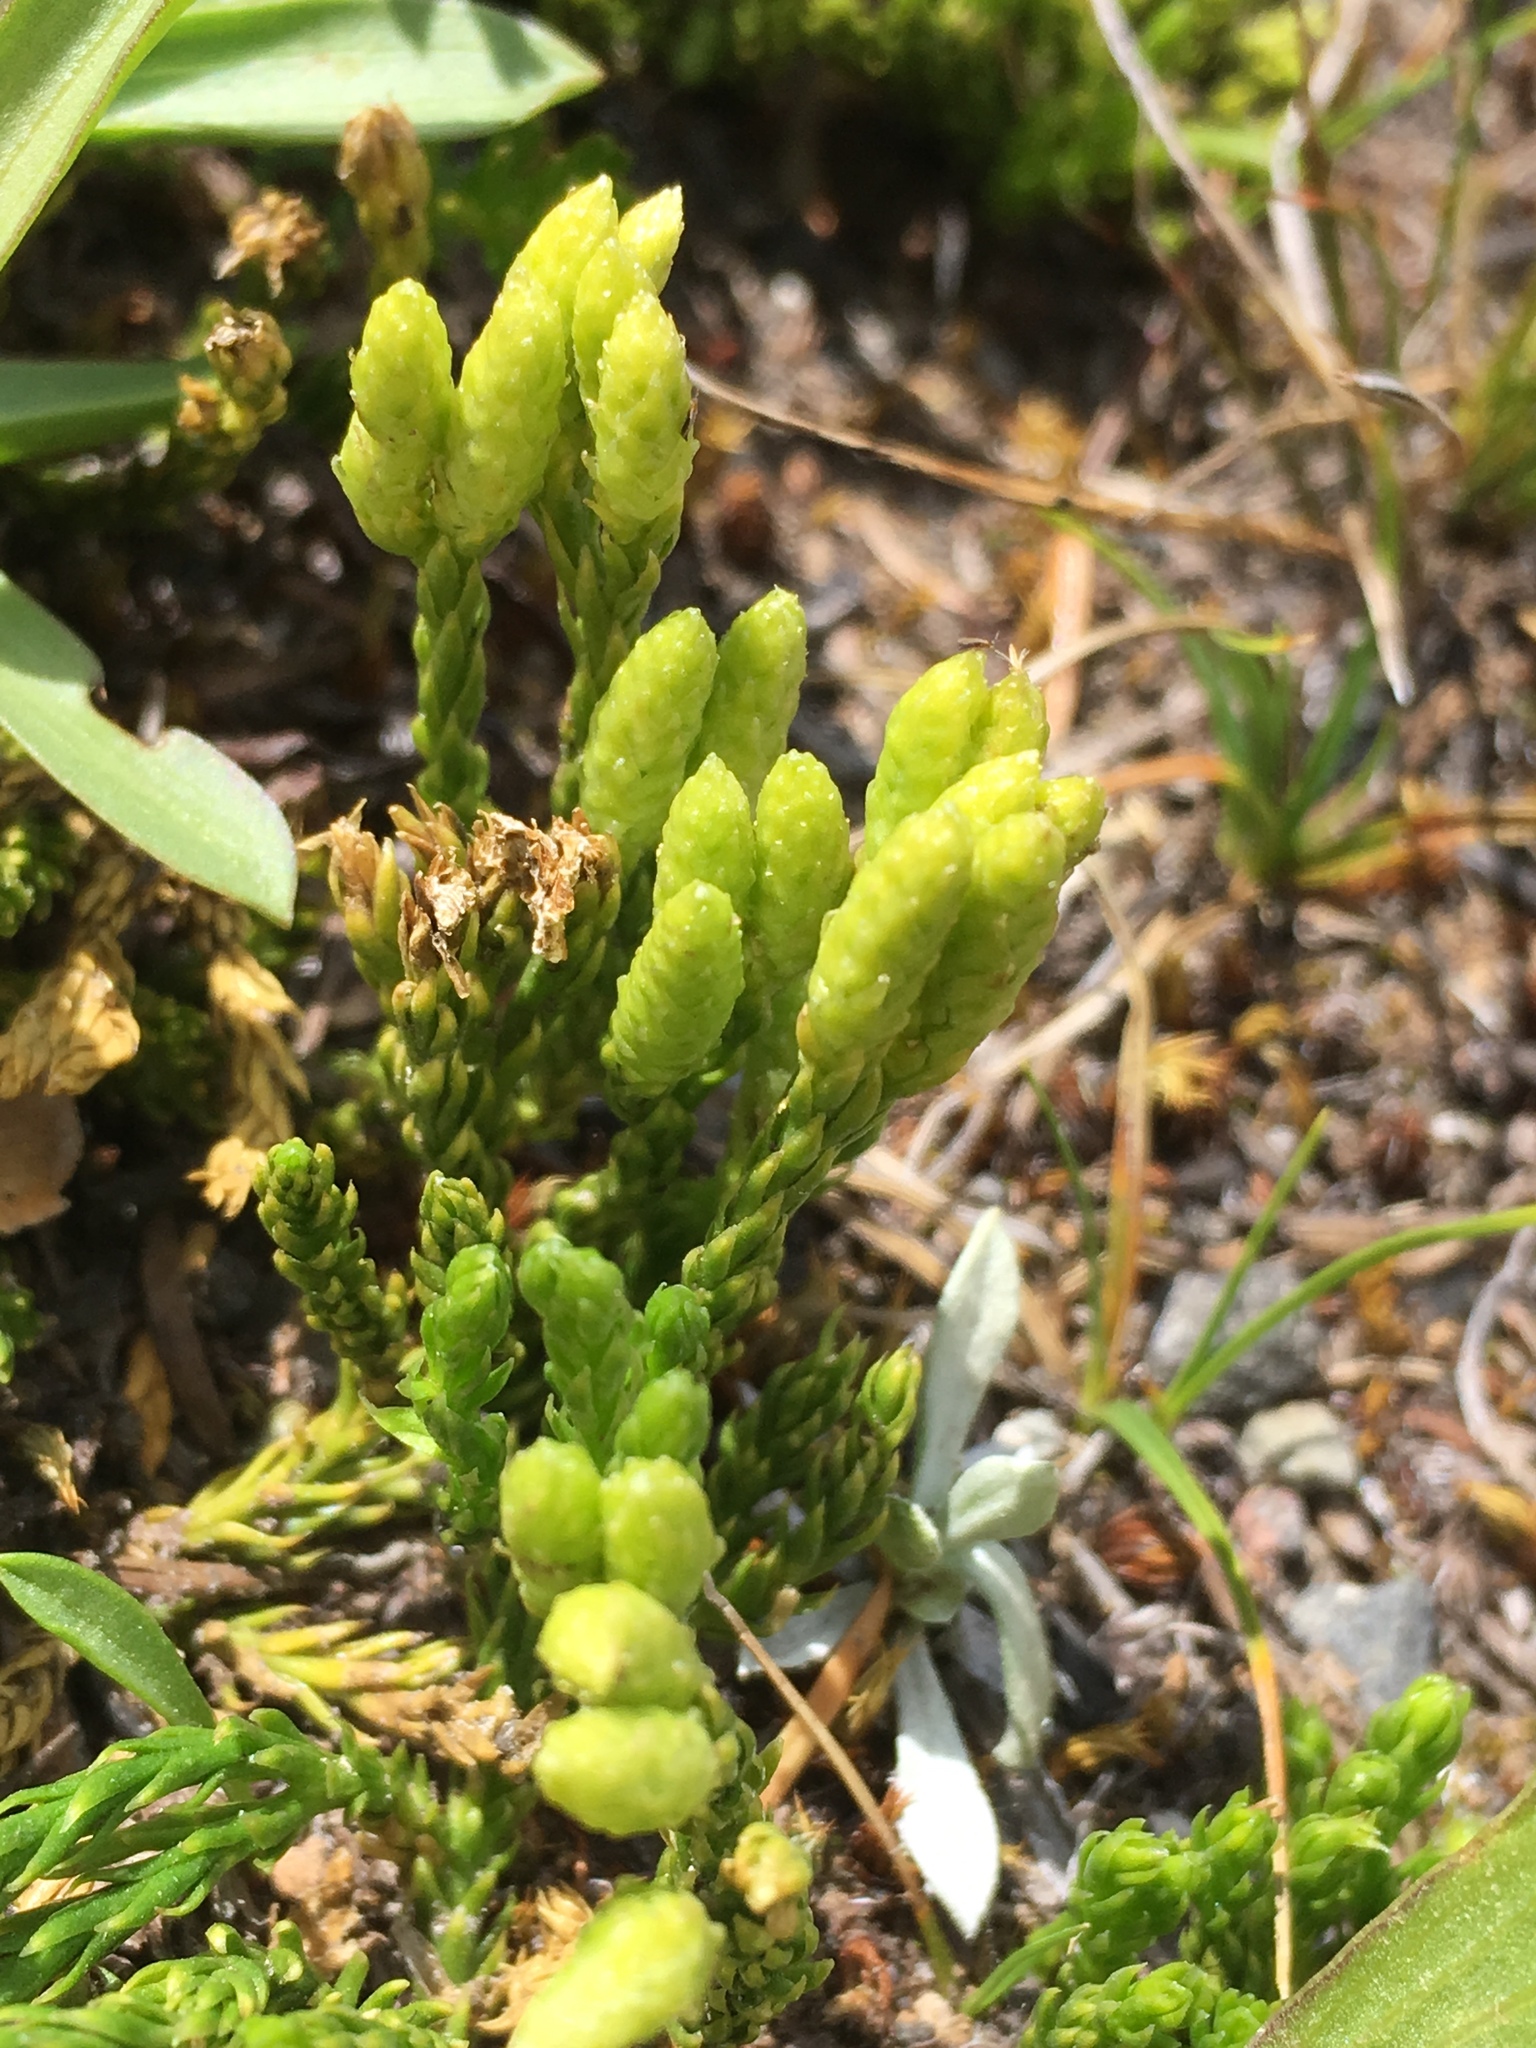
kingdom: Plantae
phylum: Tracheophyta
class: Lycopodiopsida
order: Lycopodiales
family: Lycopodiaceae
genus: Diphasiastrum
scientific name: Diphasiastrum sitchense
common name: Alaska clubmoss
